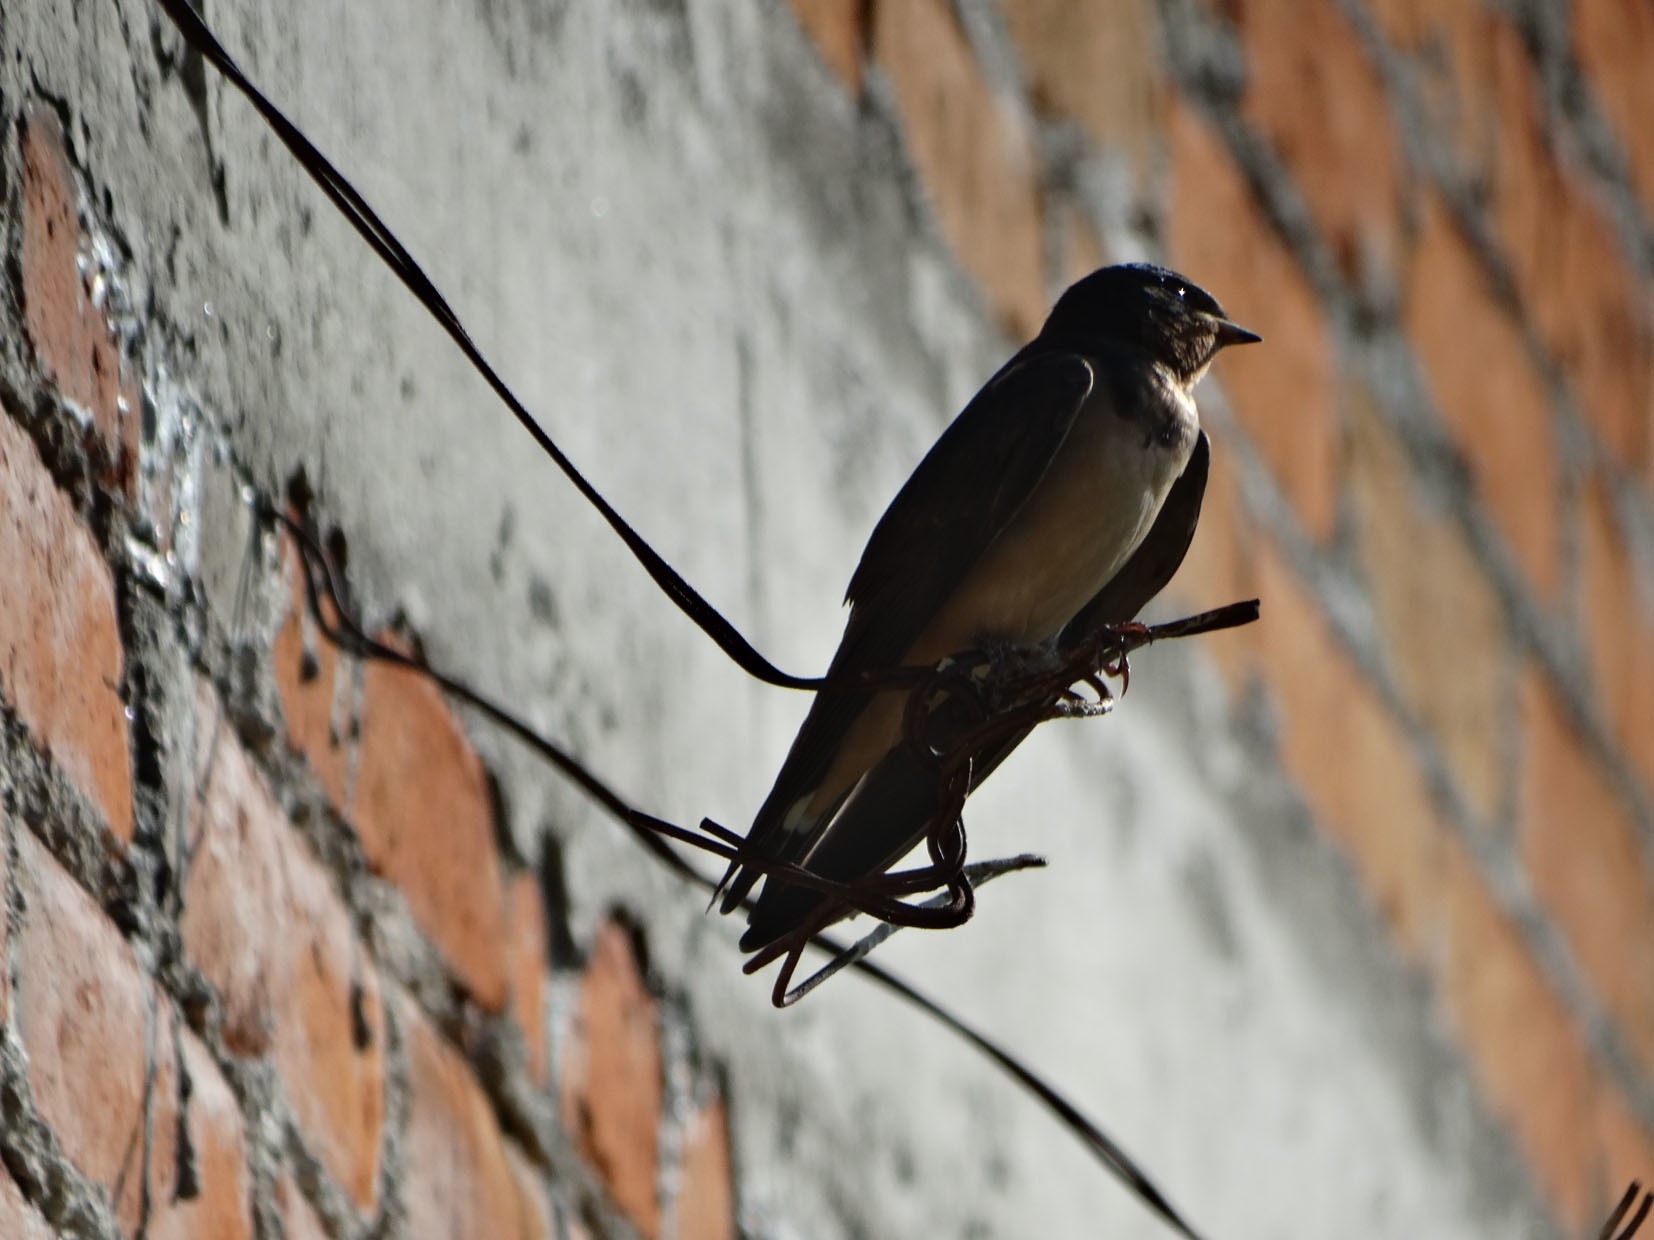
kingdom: Animalia
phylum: Chordata
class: Aves
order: Passeriformes
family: Hirundinidae
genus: Hirundo
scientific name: Hirundo rustica
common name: Barn swallow
